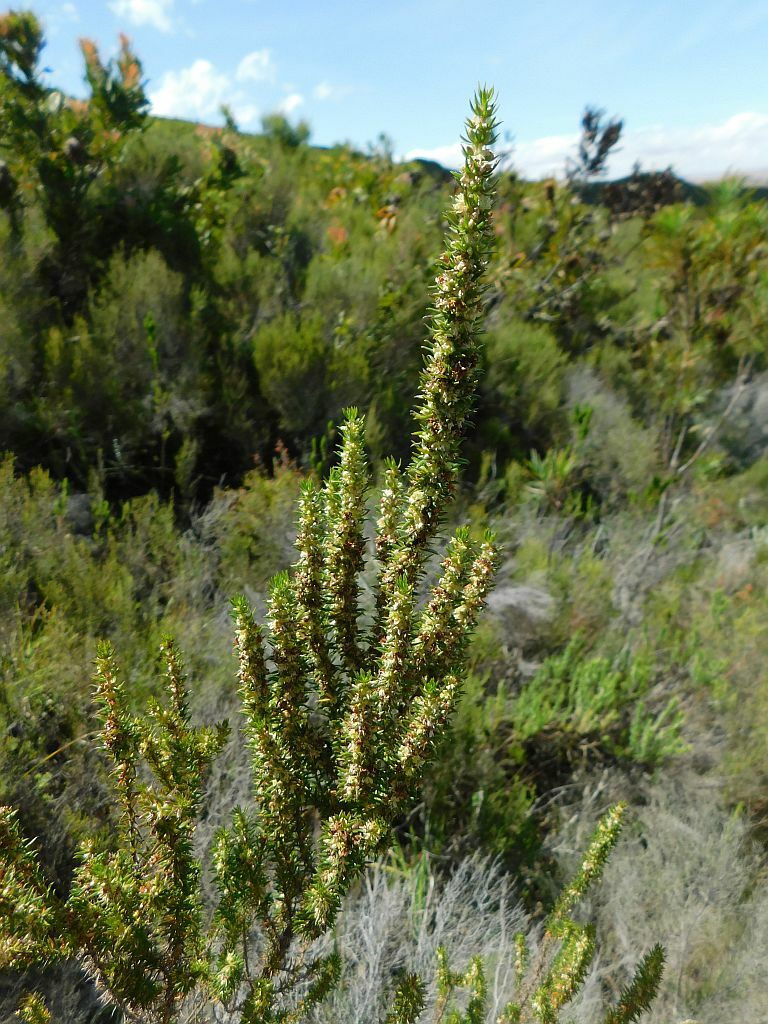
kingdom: Plantae
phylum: Tracheophyta
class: Magnoliopsida
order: Gentianales
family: Rubiaceae
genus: Anthospermum
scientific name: Anthospermum aethiopicum
